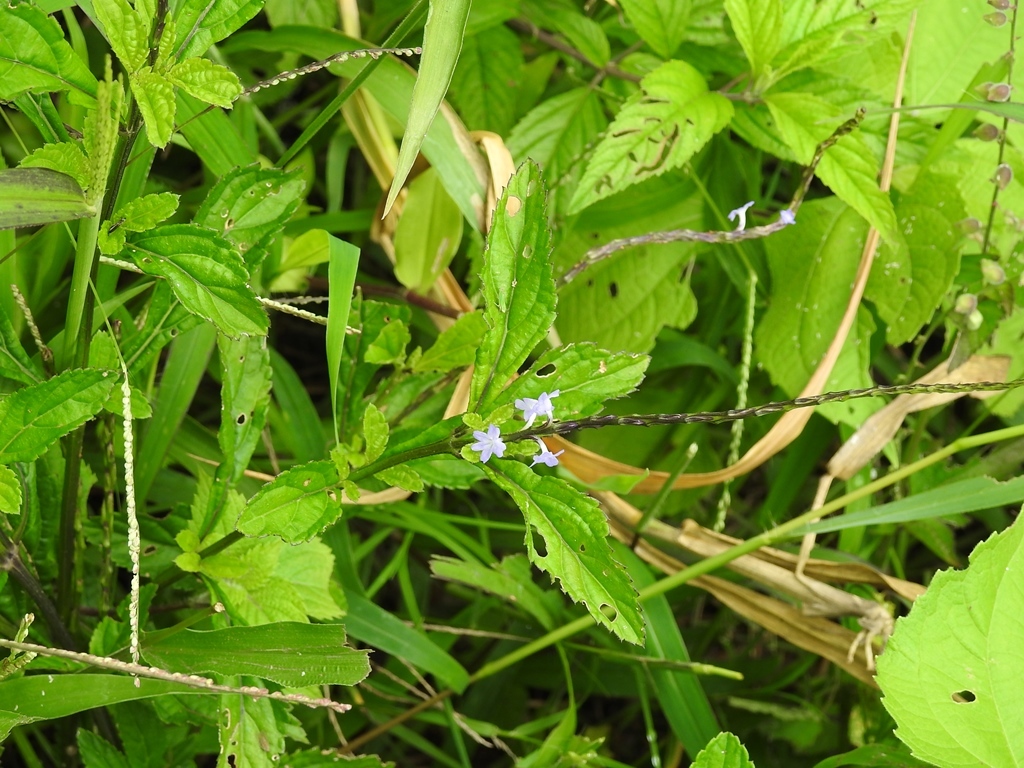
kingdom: Plantae
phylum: Tracheophyta
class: Magnoliopsida
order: Lamiales
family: Verbenaceae
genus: Stachytarpheta
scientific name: Stachytarpheta jamaicensis
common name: Light-blue snakeweed
